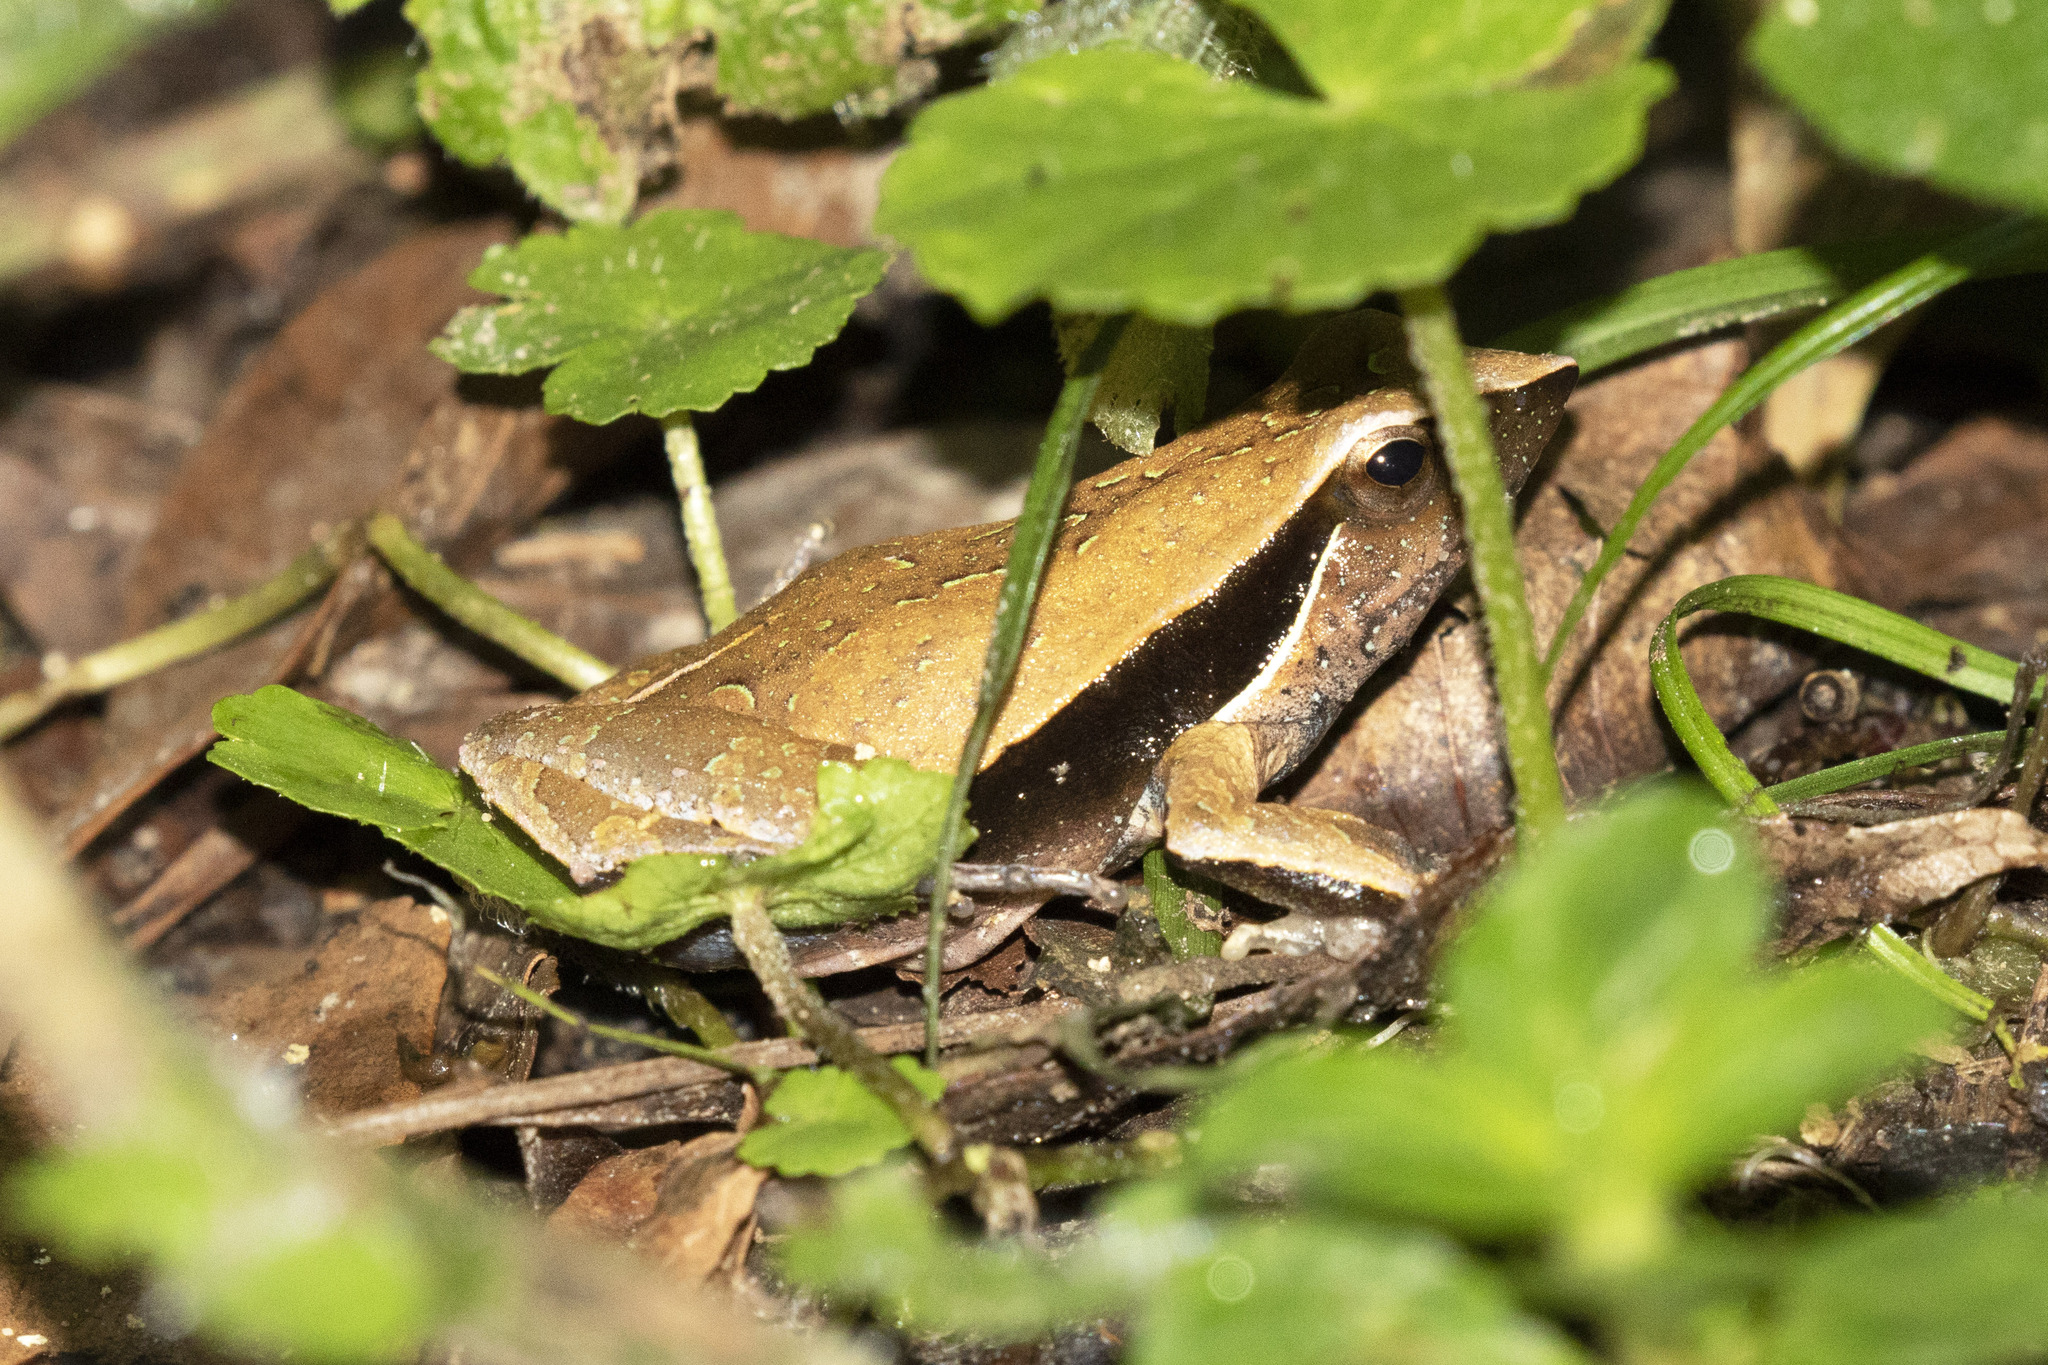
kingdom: Animalia
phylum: Chordata
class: Amphibia
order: Anura
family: Leptodactylidae
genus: Physalaemus
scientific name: Physalaemus olfersii
